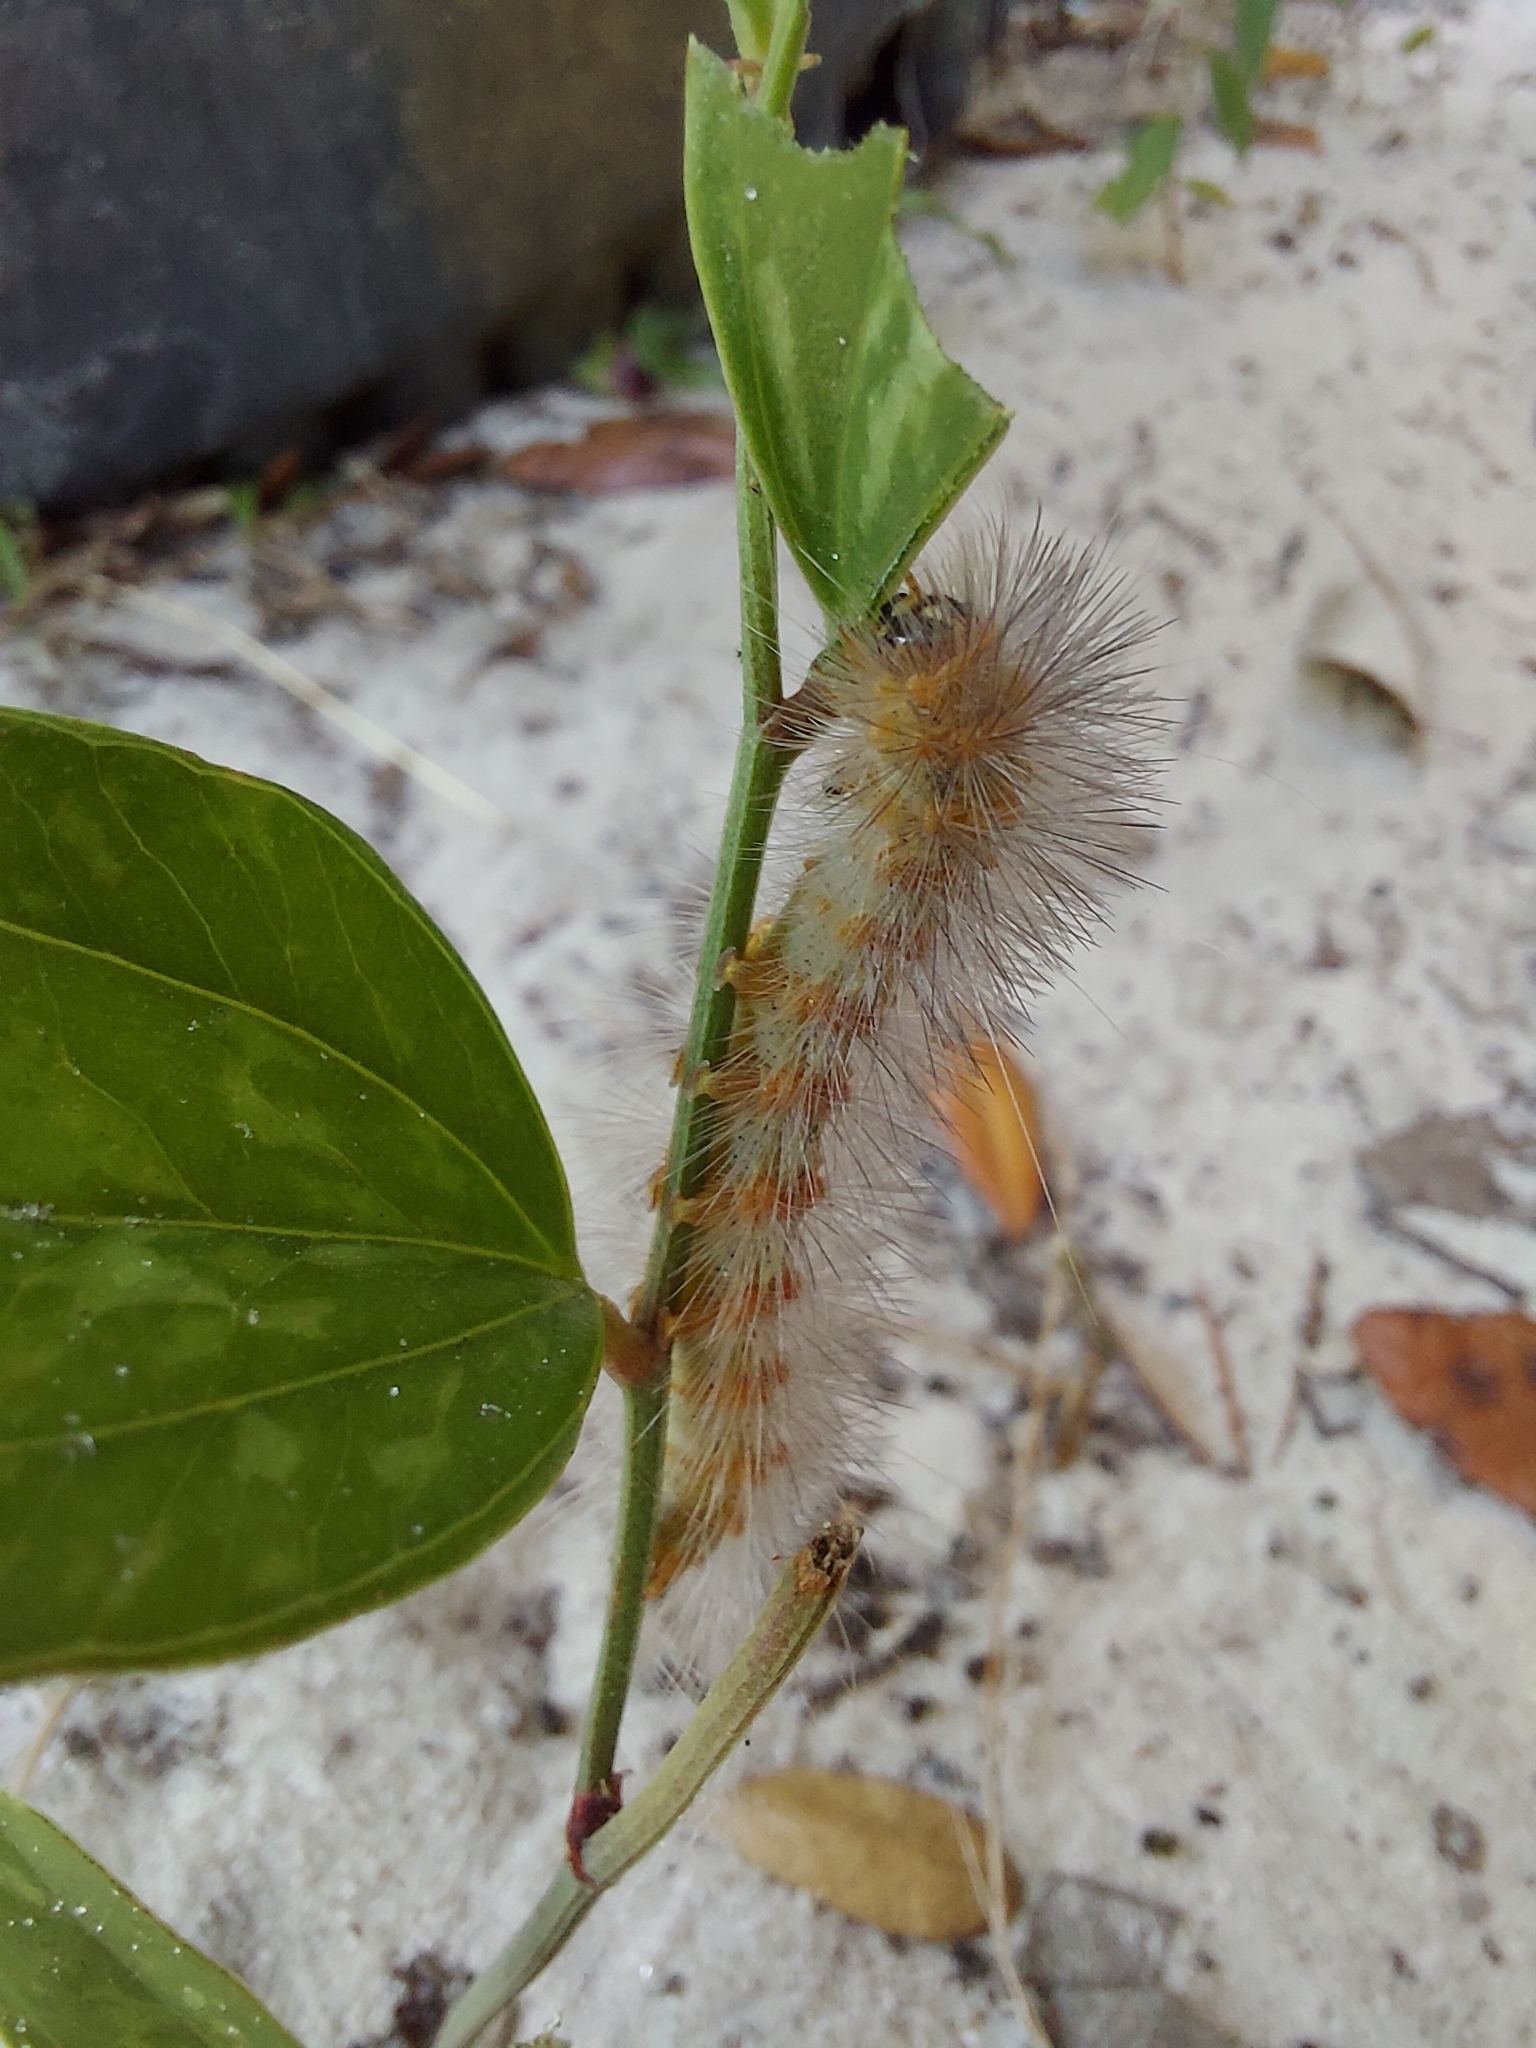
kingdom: Animalia
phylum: Arthropoda
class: Insecta
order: Lepidoptera
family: Erebidae
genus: Estigmene
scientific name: Estigmene acrea
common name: Salt marsh moth
